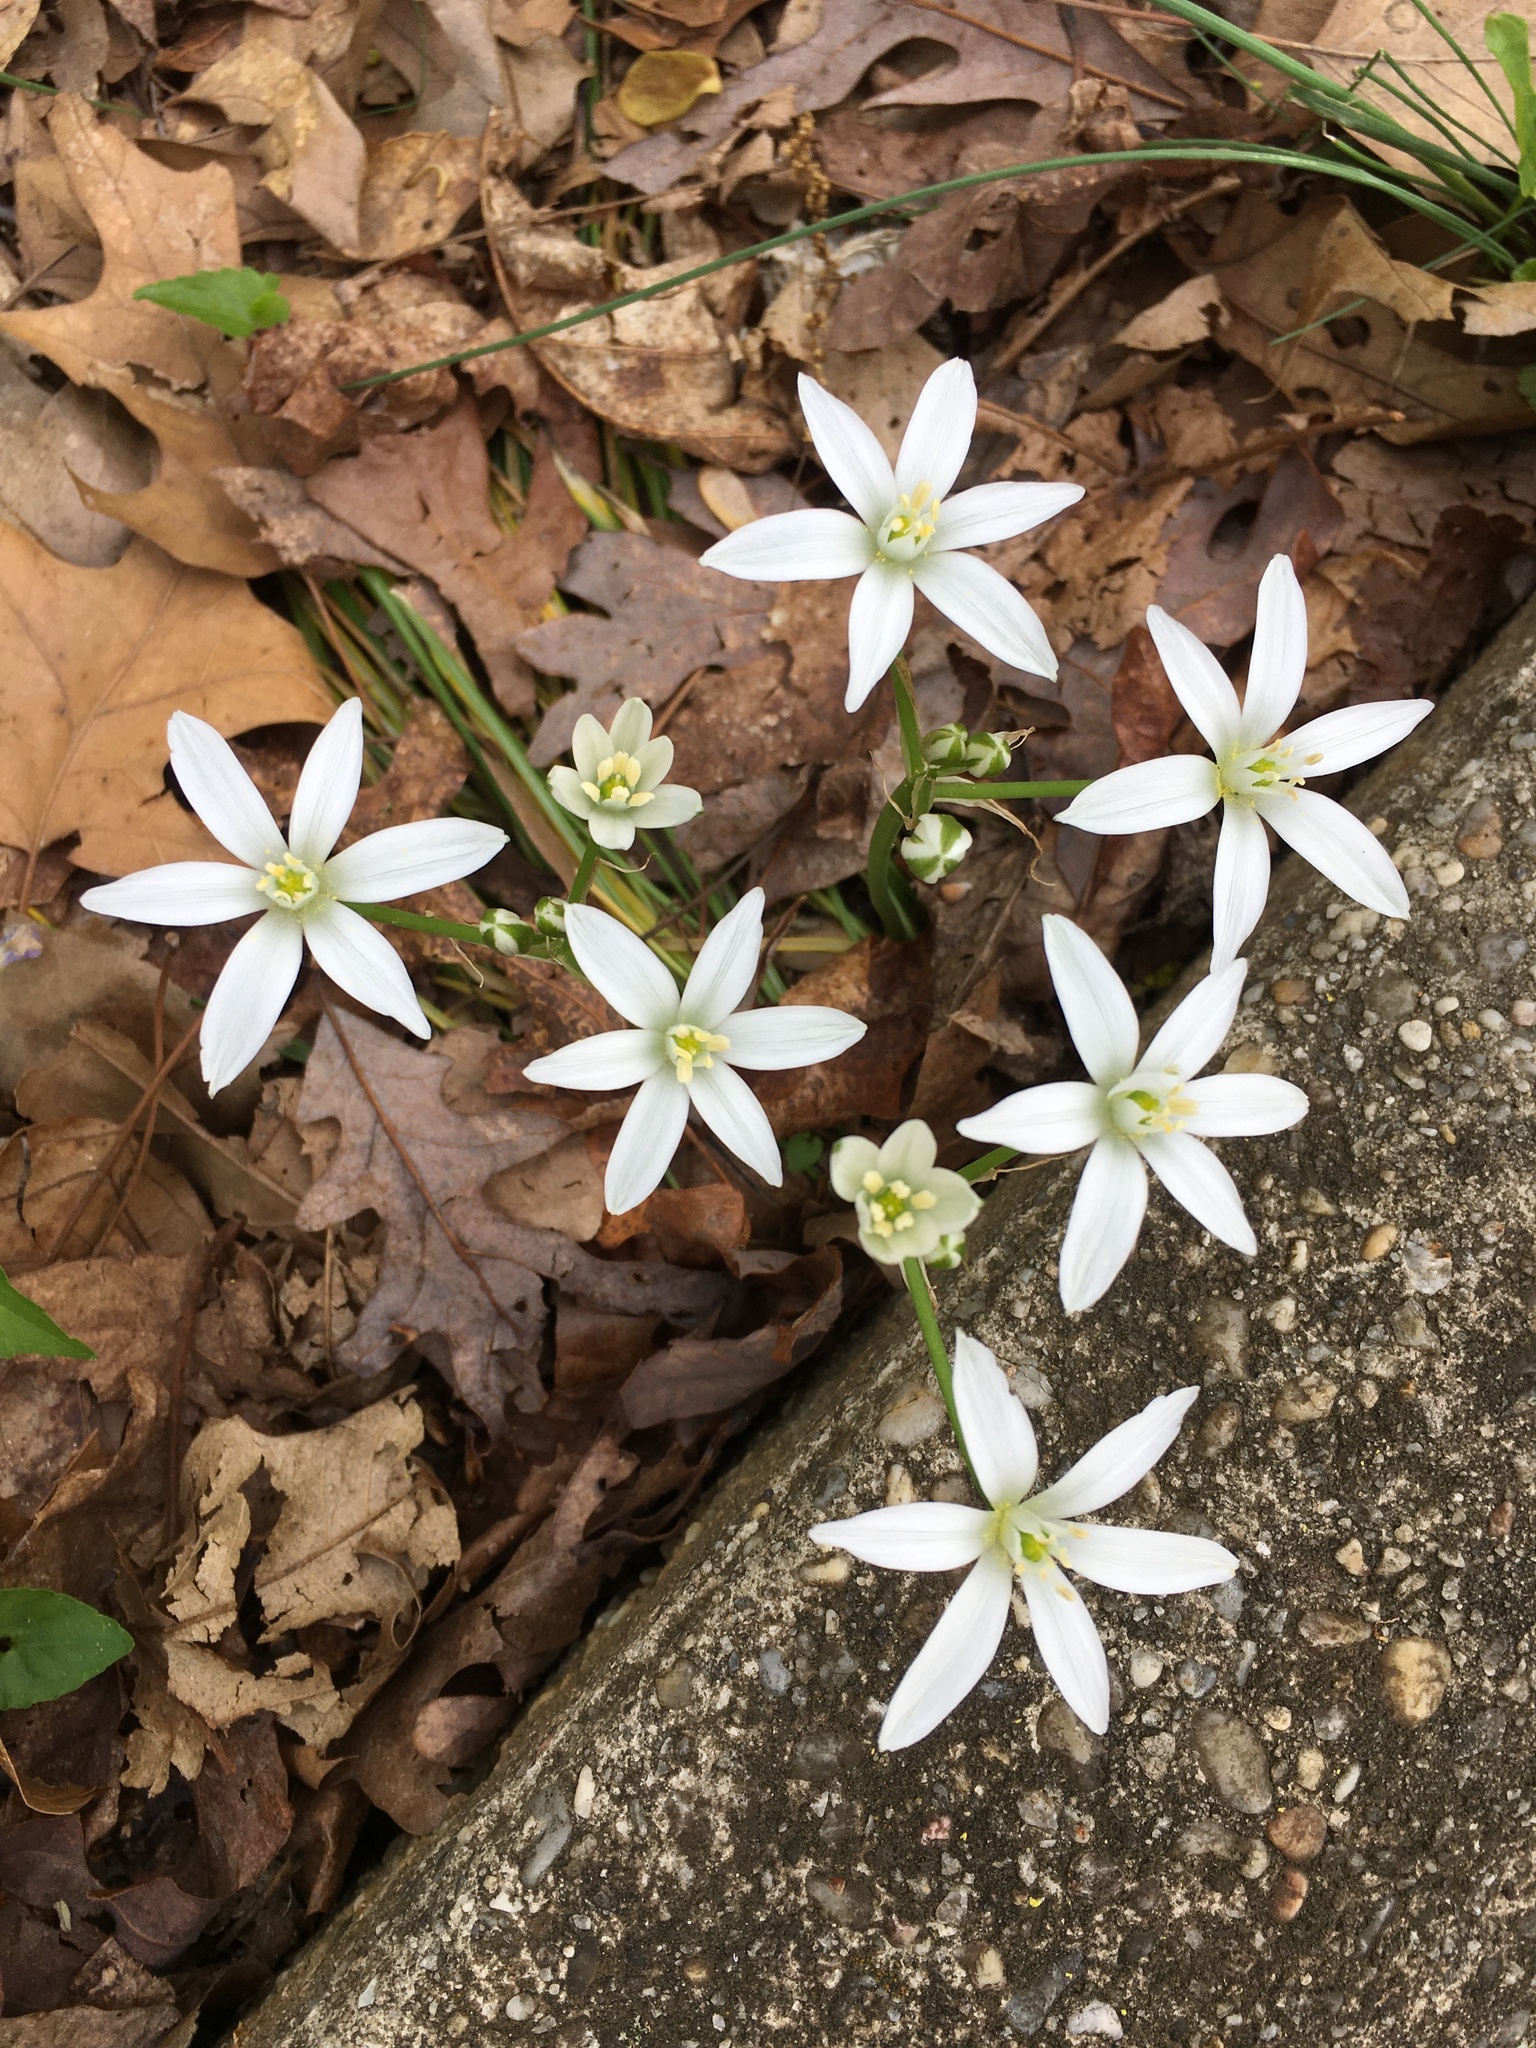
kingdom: Plantae
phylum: Tracheophyta
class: Liliopsida
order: Asparagales
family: Asparagaceae
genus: Ornithogalum
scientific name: Ornithogalum umbellatum
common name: Garden star-of-bethlehem
